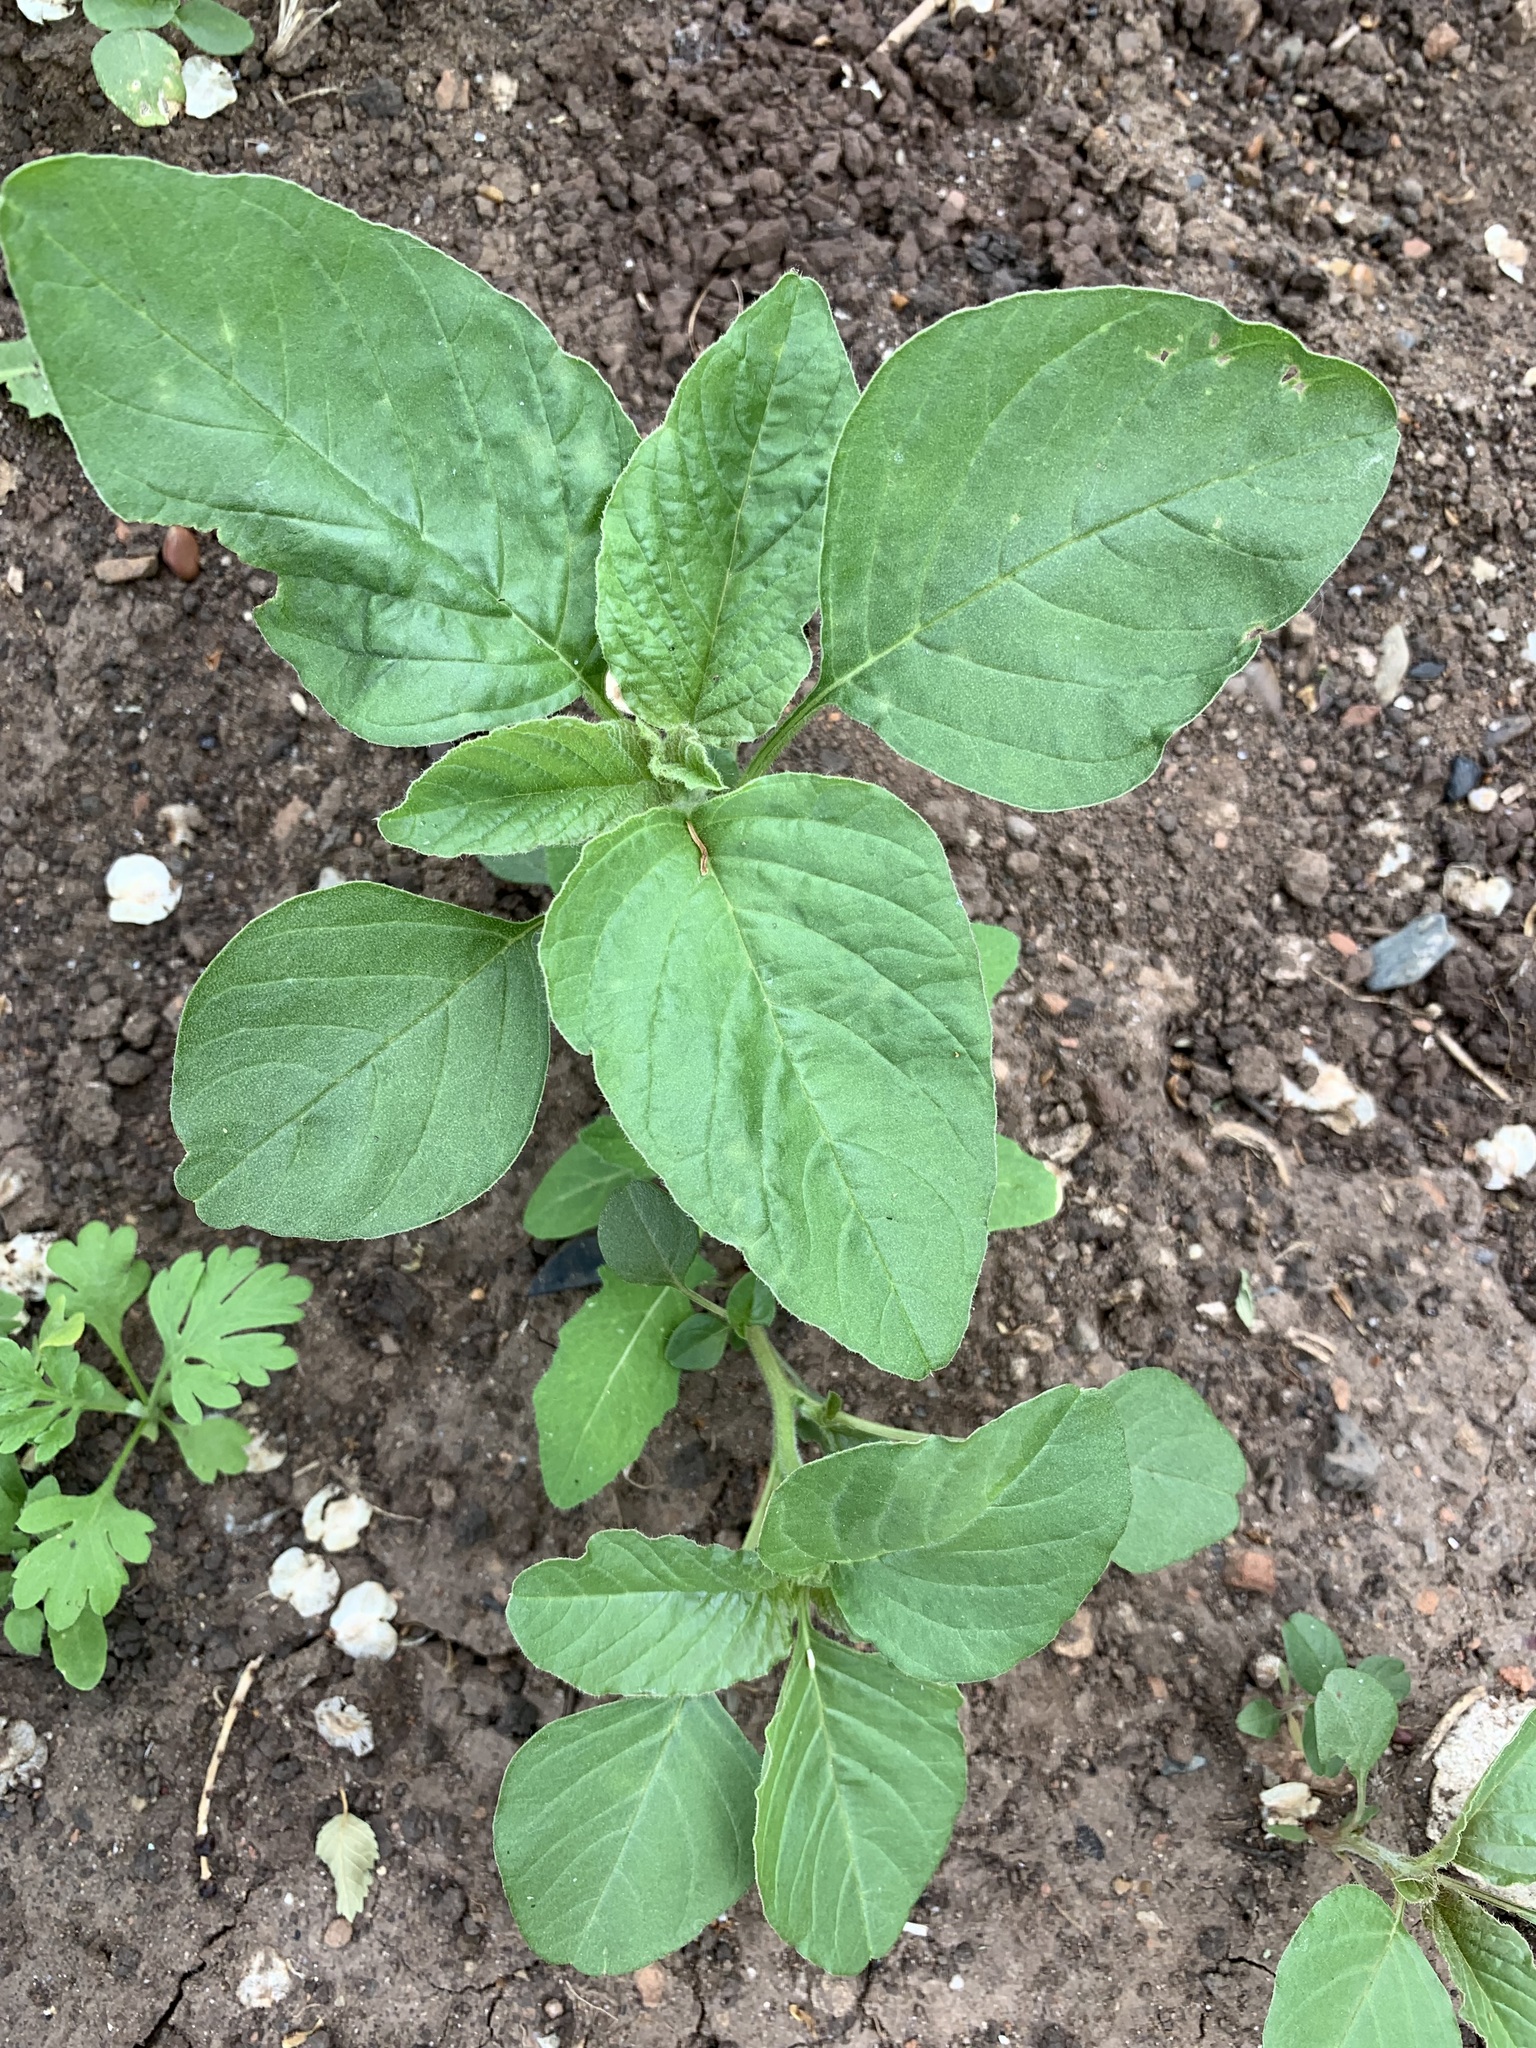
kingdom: Plantae
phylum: Tracheophyta
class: Magnoliopsida
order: Caryophyllales
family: Amaranthaceae
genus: Amaranthus
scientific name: Amaranthus retroflexus
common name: Redroot amaranth
